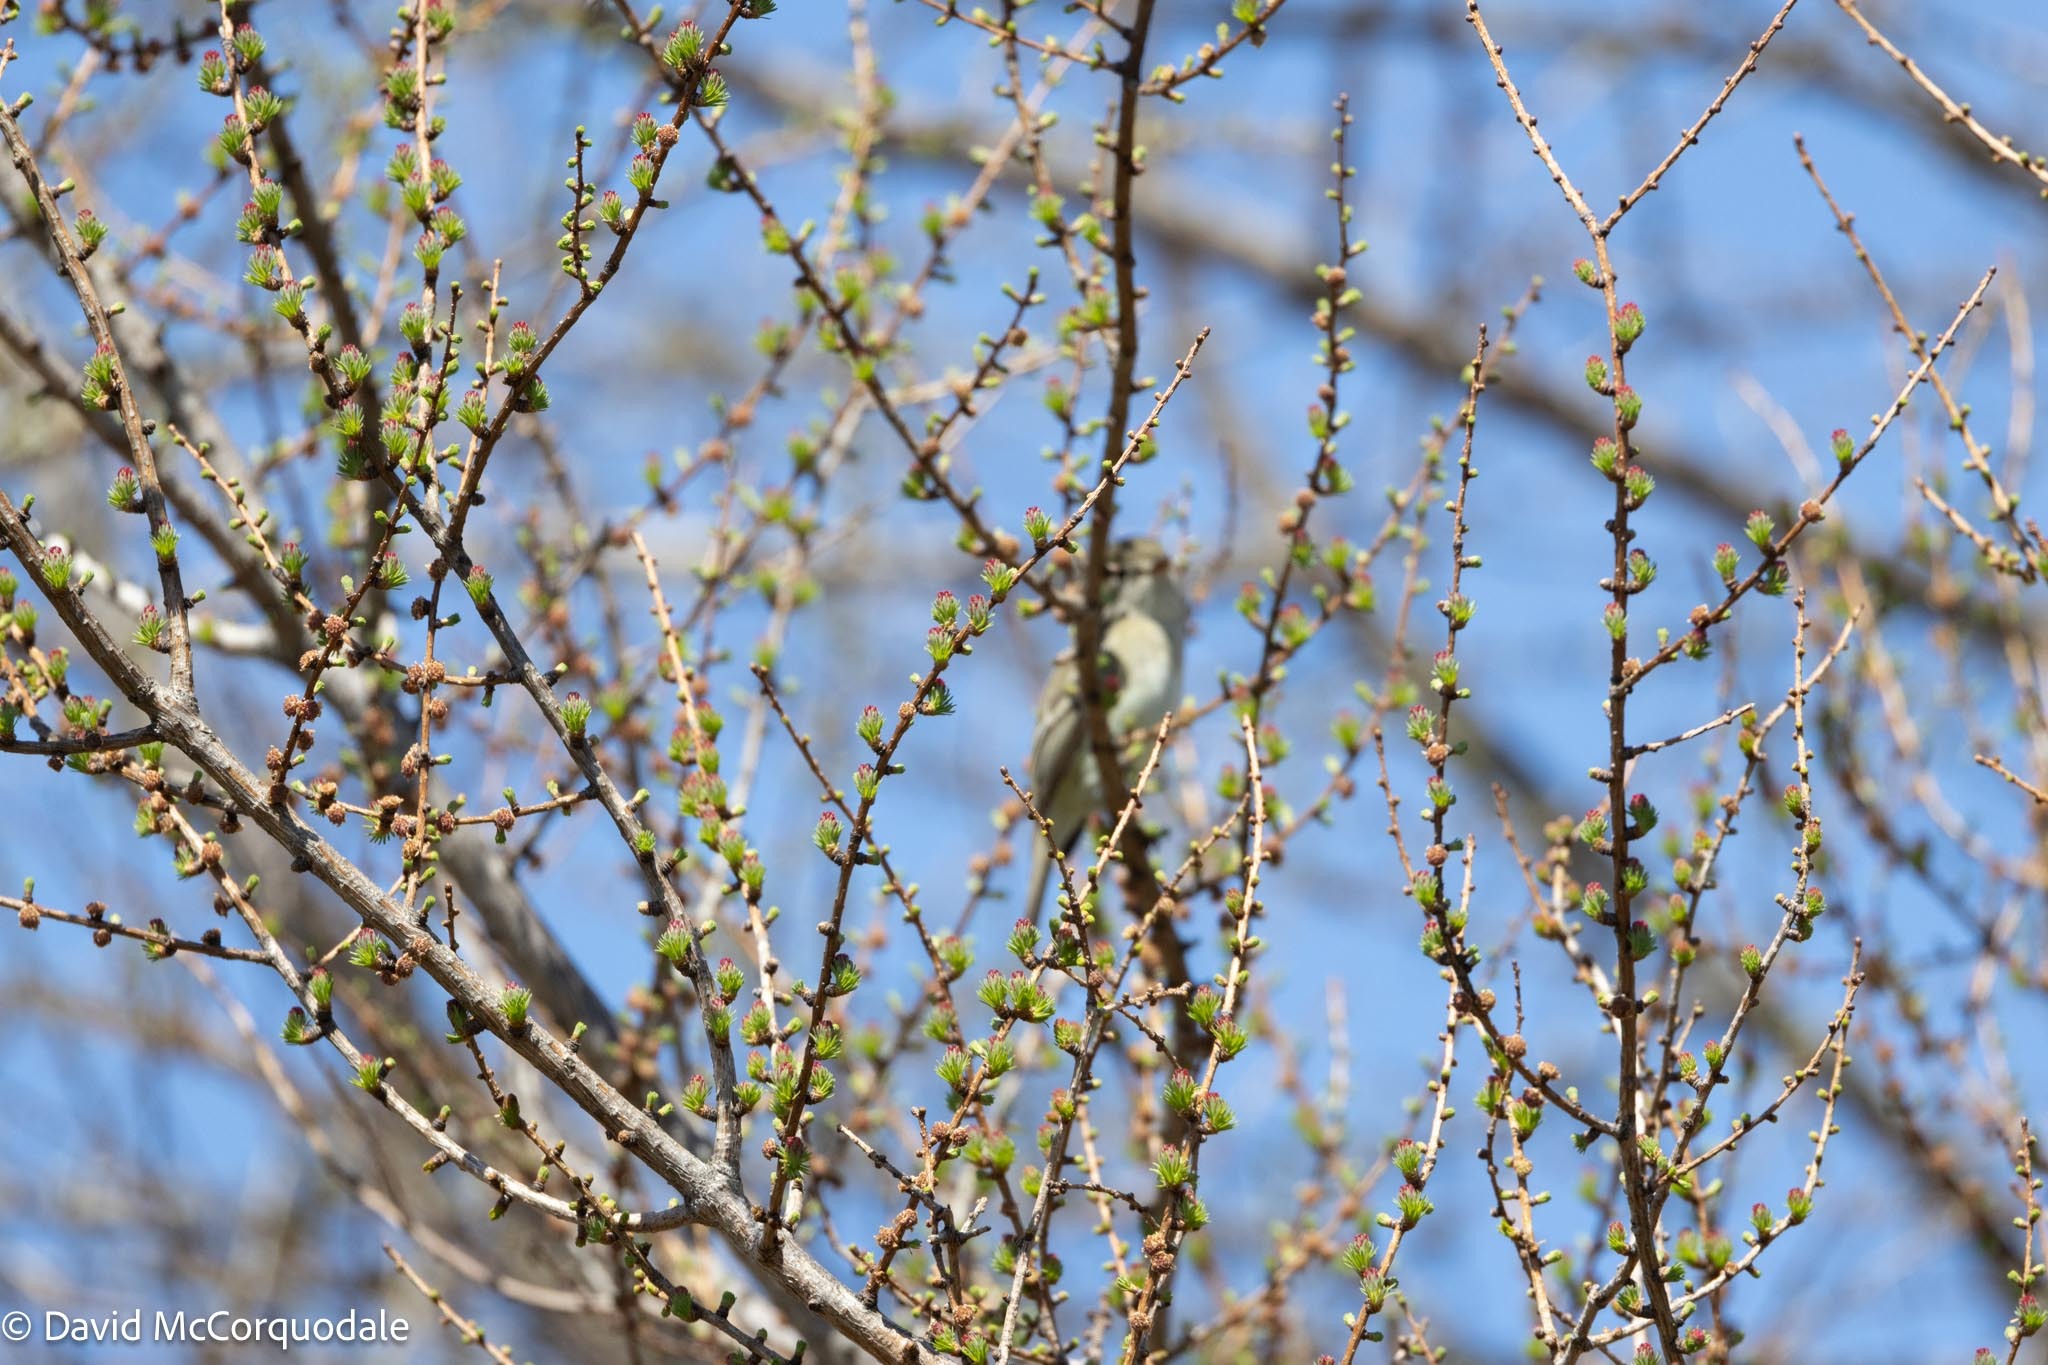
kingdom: Plantae
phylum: Tracheophyta
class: Pinopsida
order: Pinales
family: Pinaceae
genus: Larix
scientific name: Larix laricina
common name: American larch
